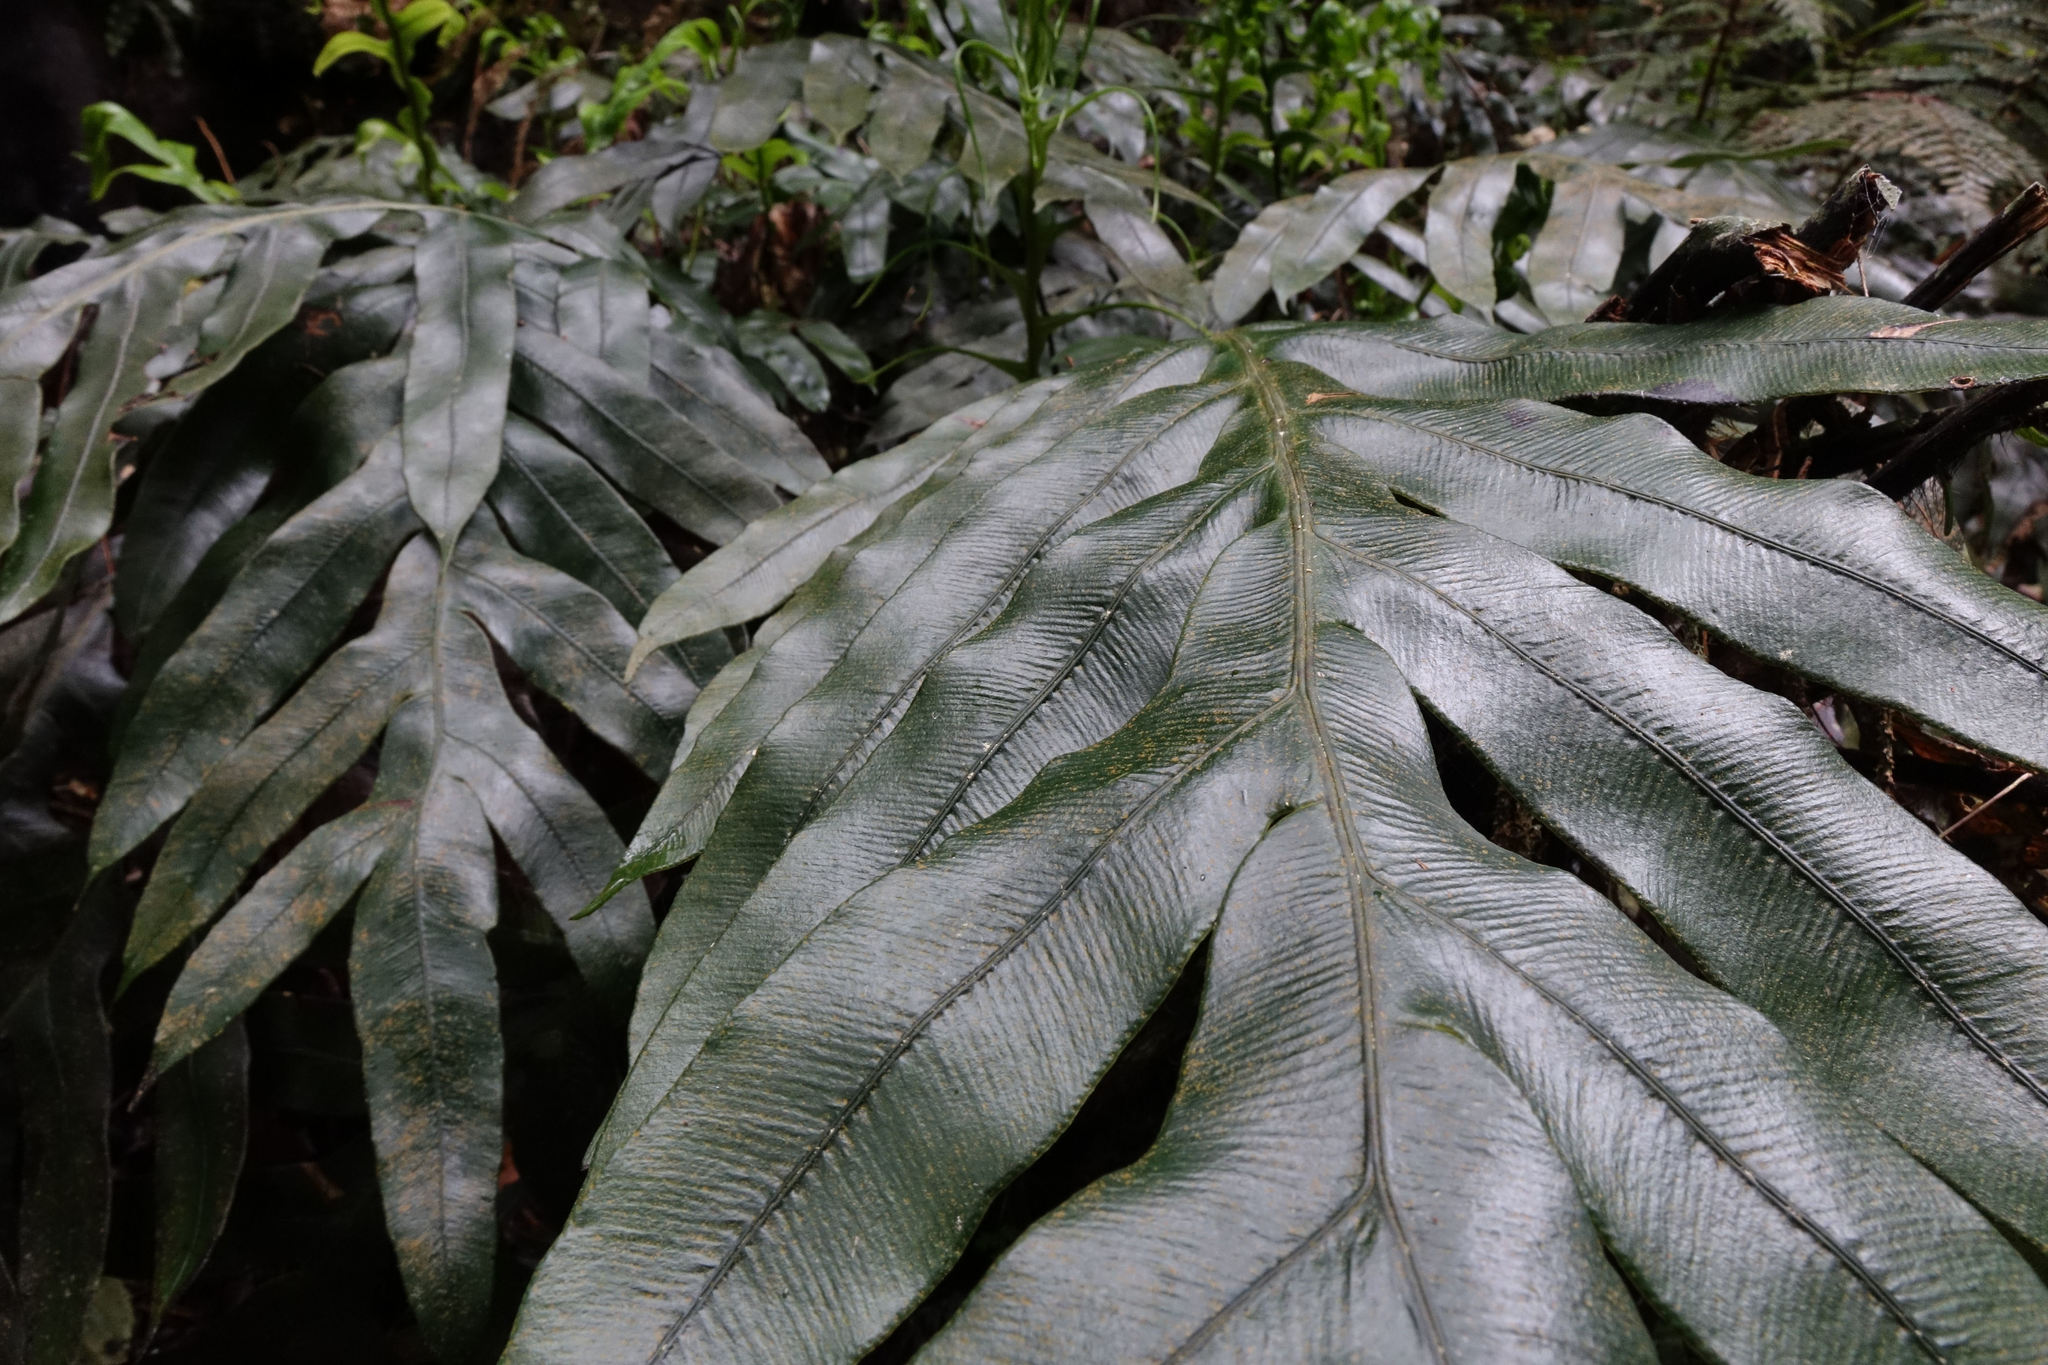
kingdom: Plantae
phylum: Tracheophyta
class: Polypodiopsida
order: Polypodiales
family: Blechnaceae
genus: Austroblechnum
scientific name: Austroblechnum colensoi
